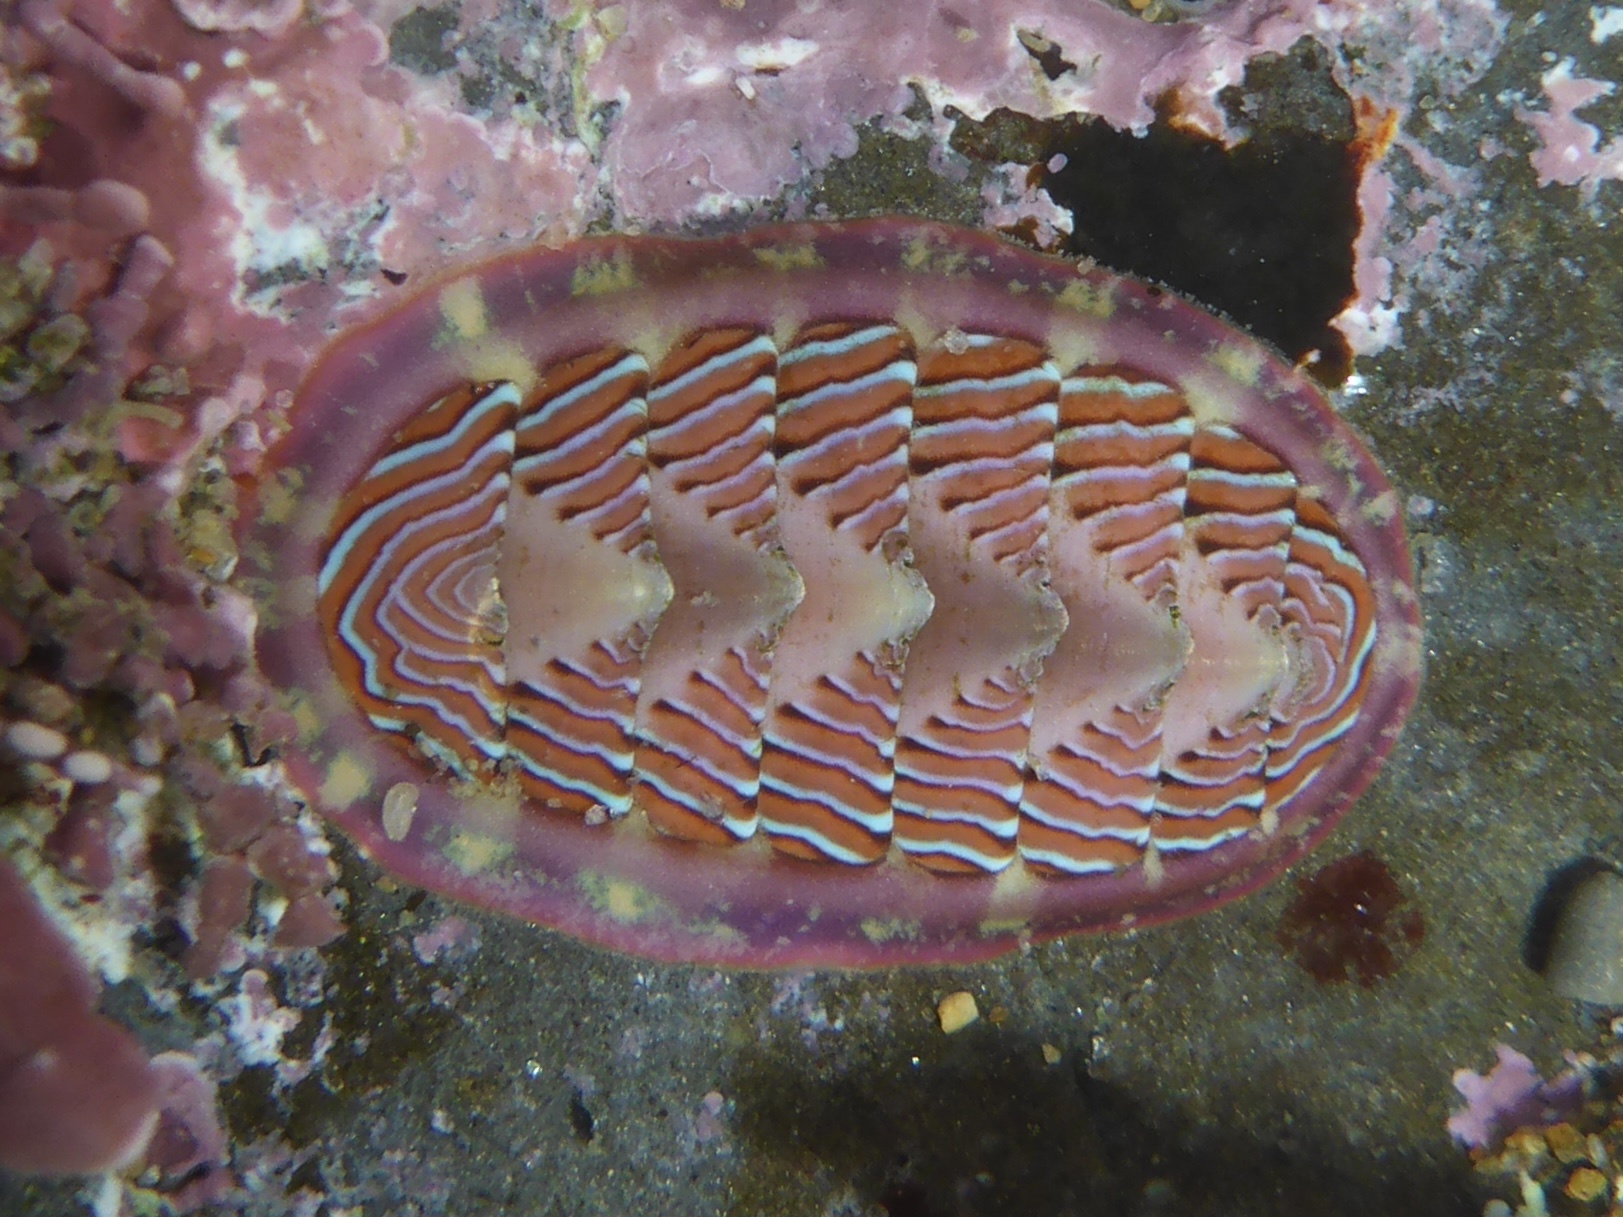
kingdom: Animalia
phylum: Mollusca
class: Polyplacophora
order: Chitonida
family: Tonicellidae
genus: Tonicella
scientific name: Tonicella lineata
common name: Lined chiton
